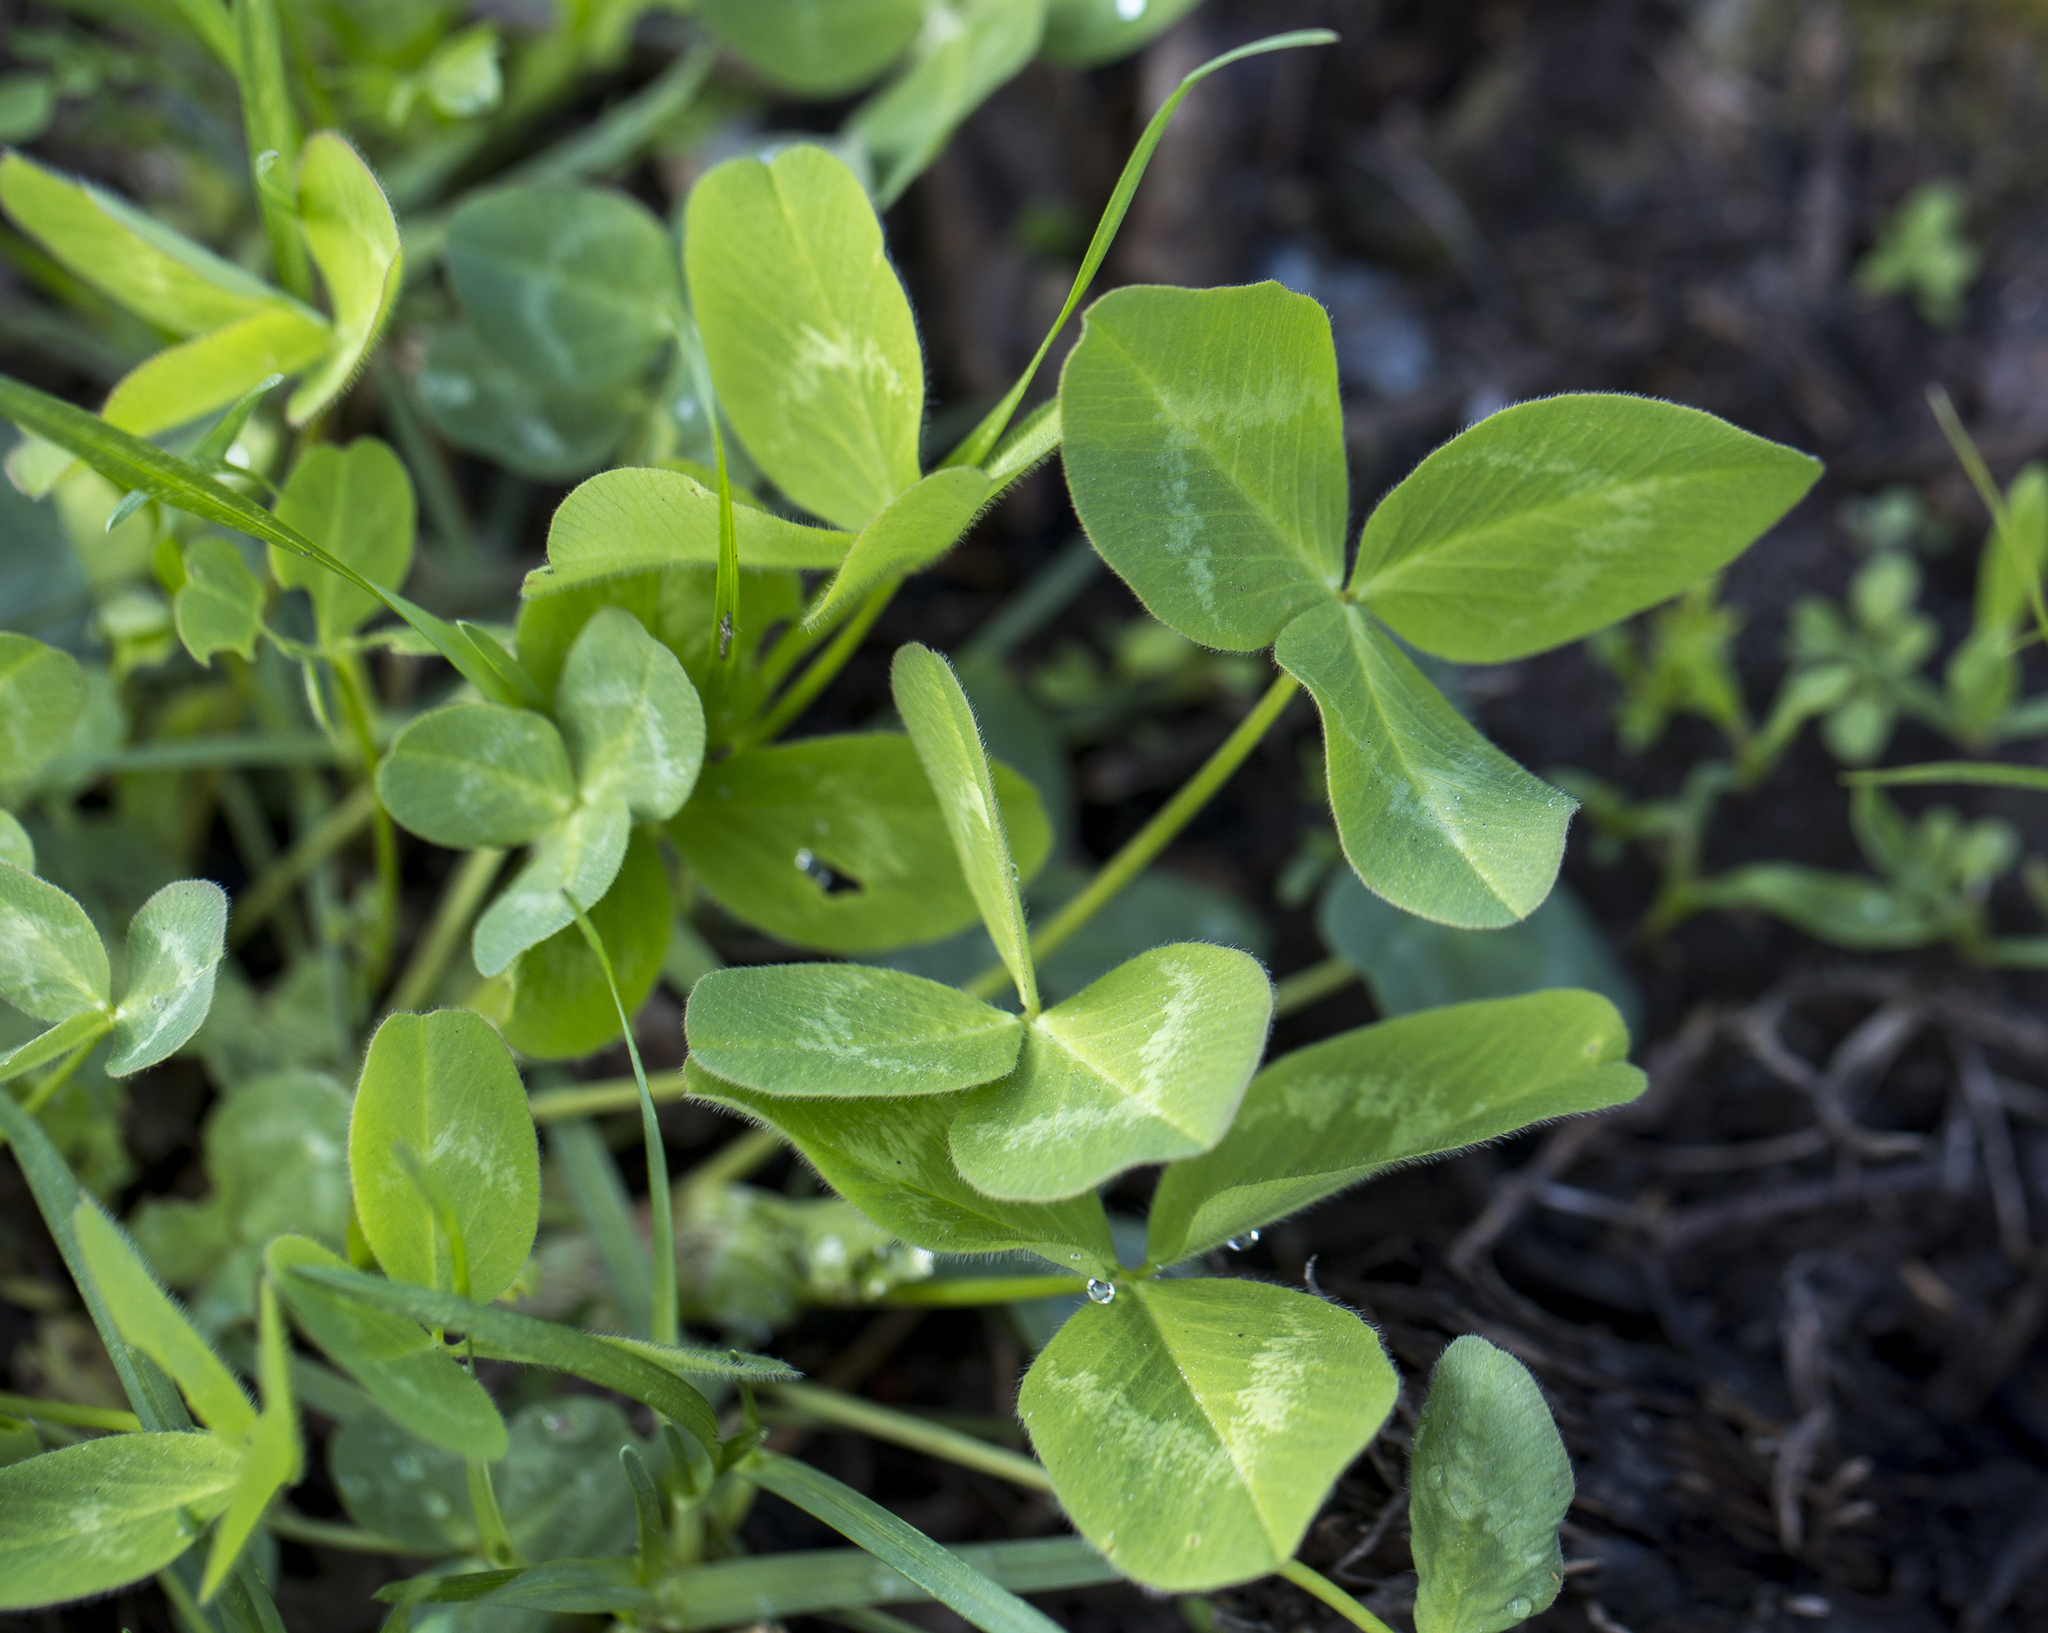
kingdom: Plantae
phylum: Tracheophyta
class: Magnoliopsida
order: Fabales
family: Fabaceae
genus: Trifolium
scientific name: Trifolium pratense
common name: Red clover
